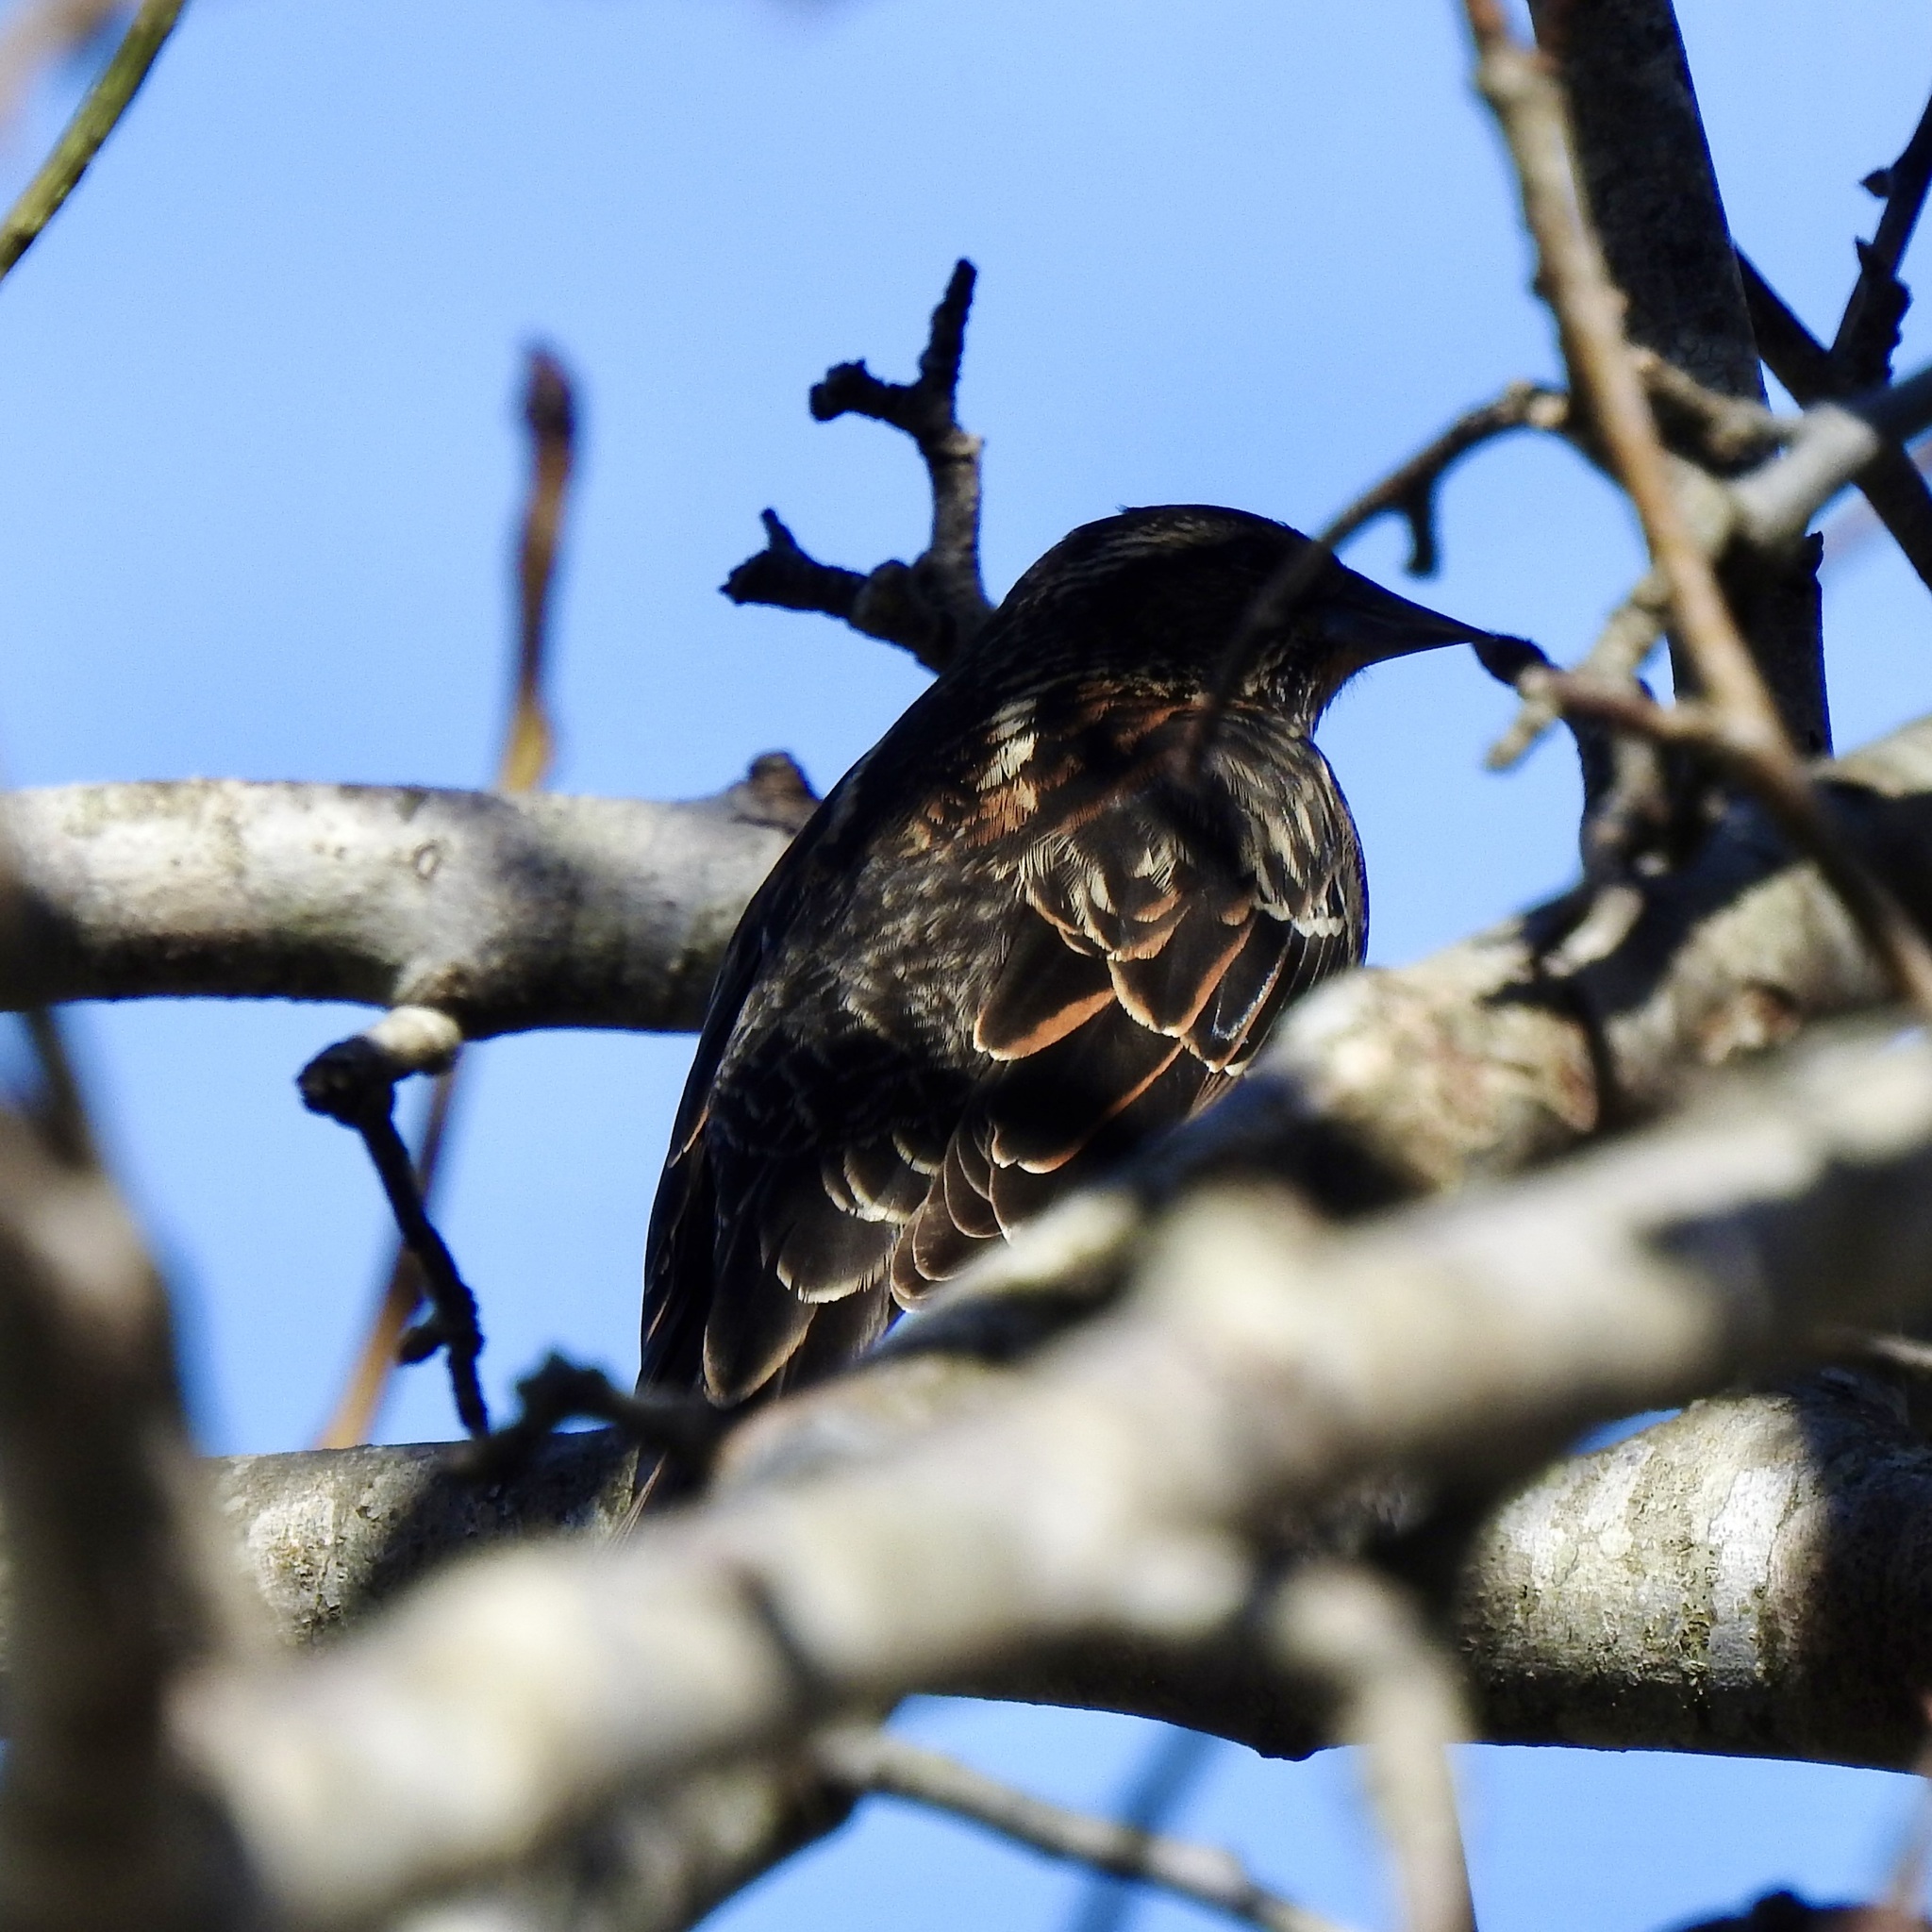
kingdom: Animalia
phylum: Chordata
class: Aves
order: Passeriformes
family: Icteridae
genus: Agelaius
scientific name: Agelaius phoeniceus
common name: Red-winged blackbird
